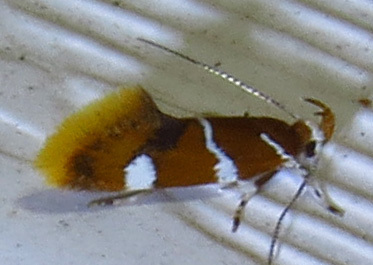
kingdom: Animalia
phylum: Arthropoda
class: Insecta
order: Lepidoptera
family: Oecophoridae
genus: Promalactis
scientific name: Promalactis suzukiella
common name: Moth
